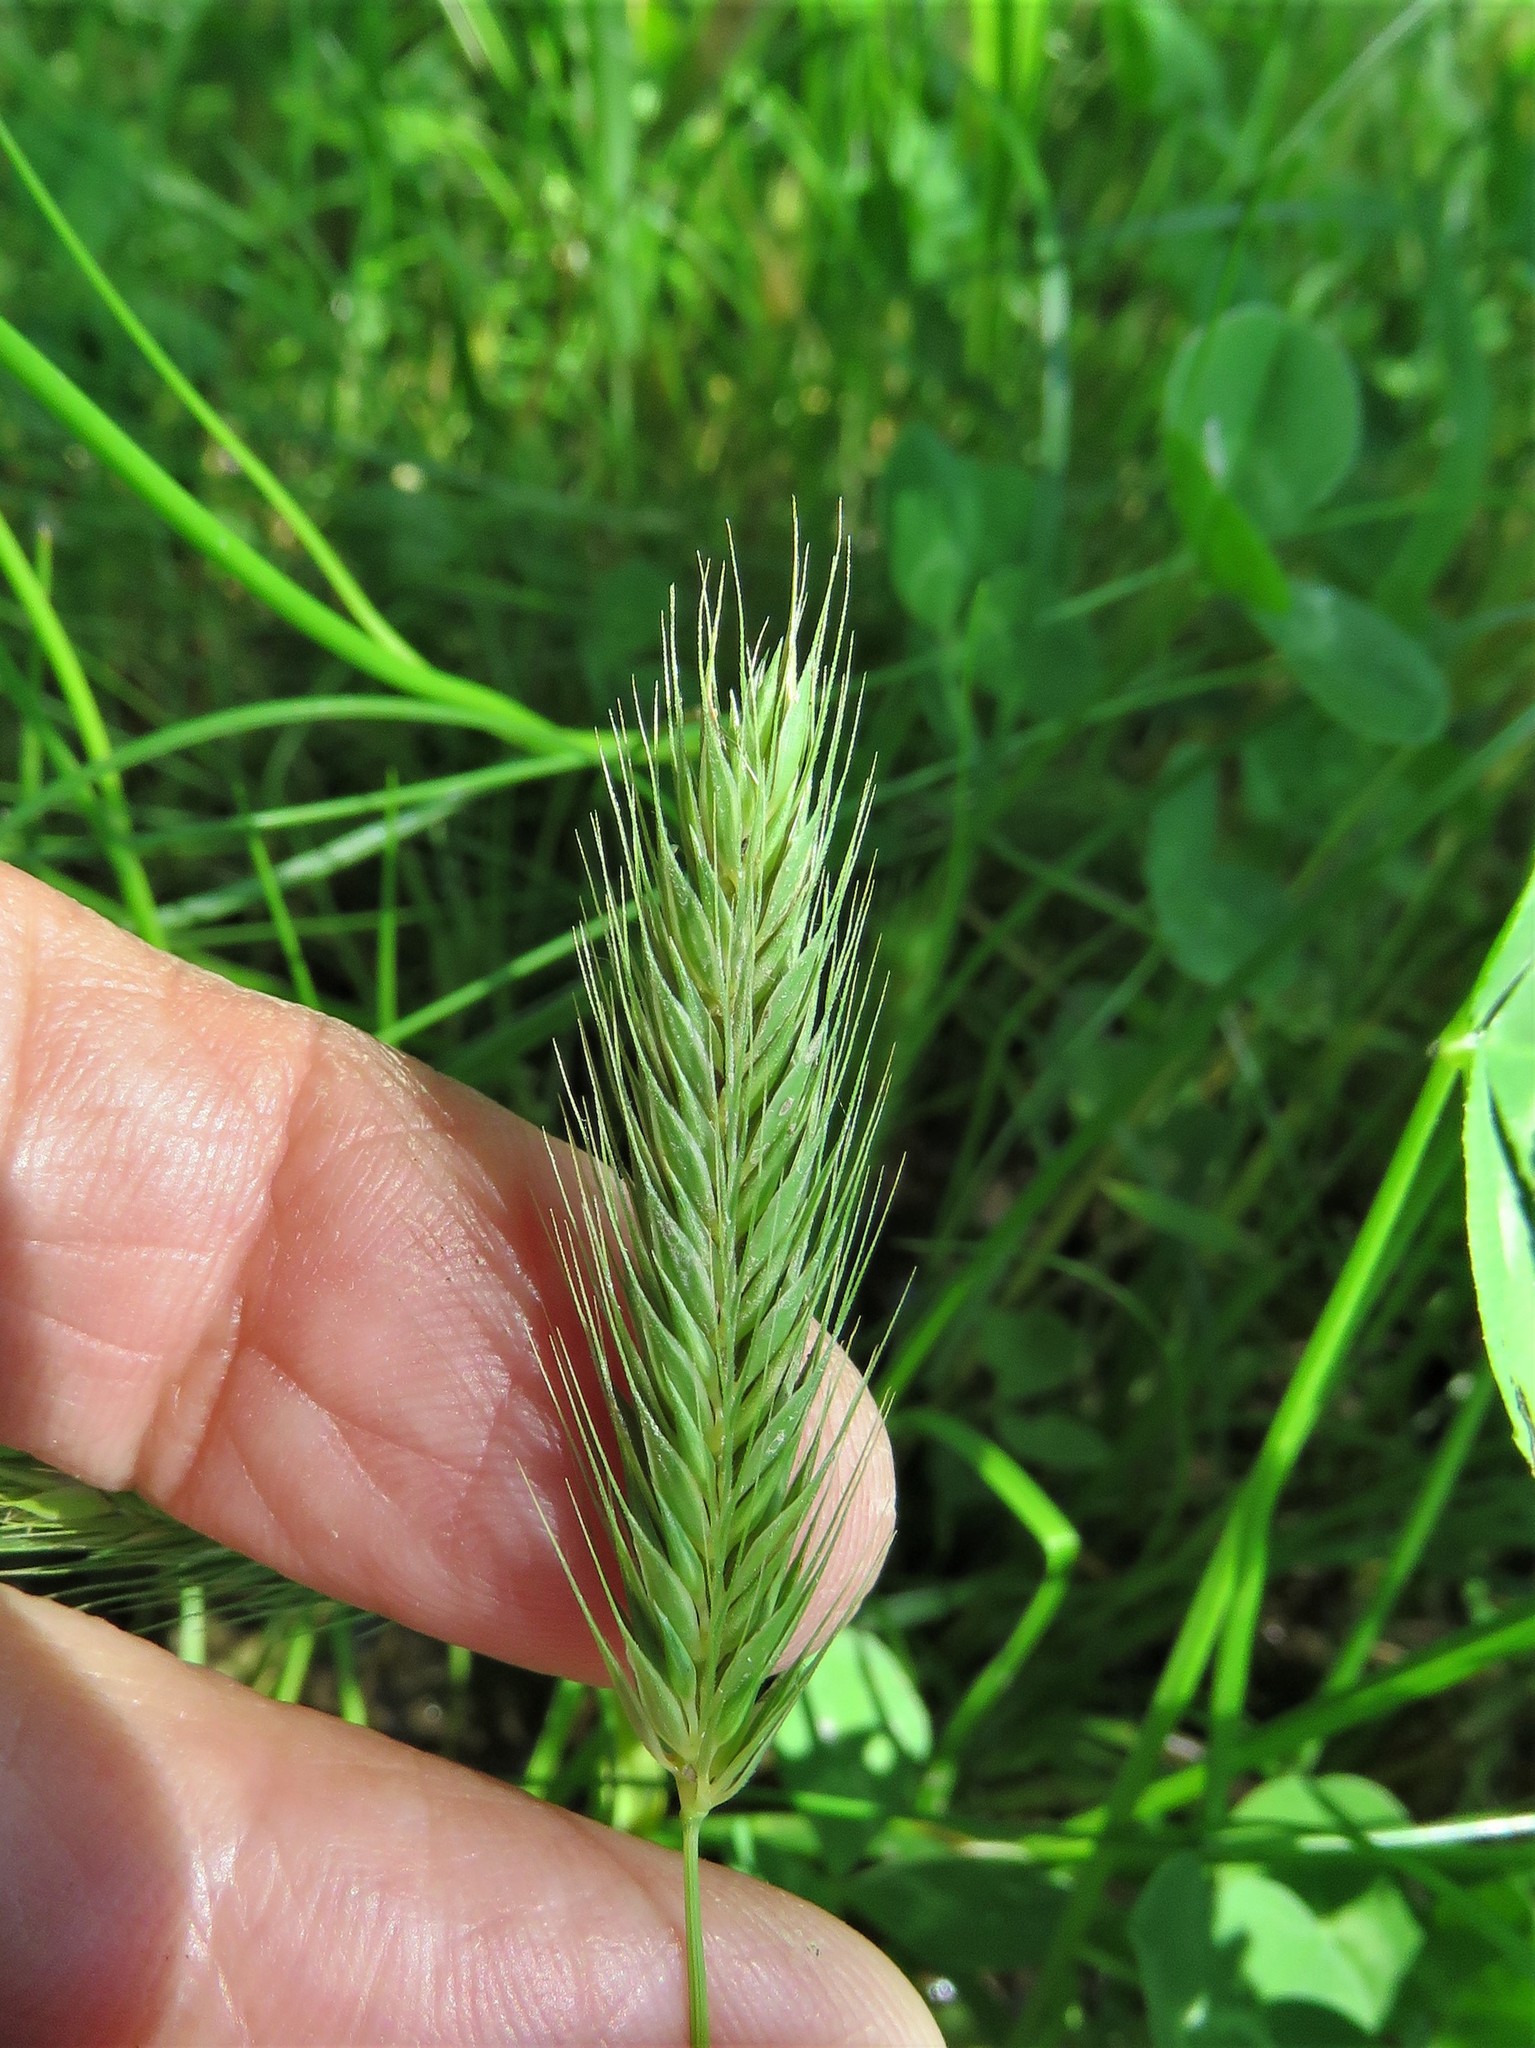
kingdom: Plantae
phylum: Tracheophyta
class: Liliopsida
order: Poales
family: Poaceae
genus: Hordeum
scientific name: Hordeum pusillum
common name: Little barley
